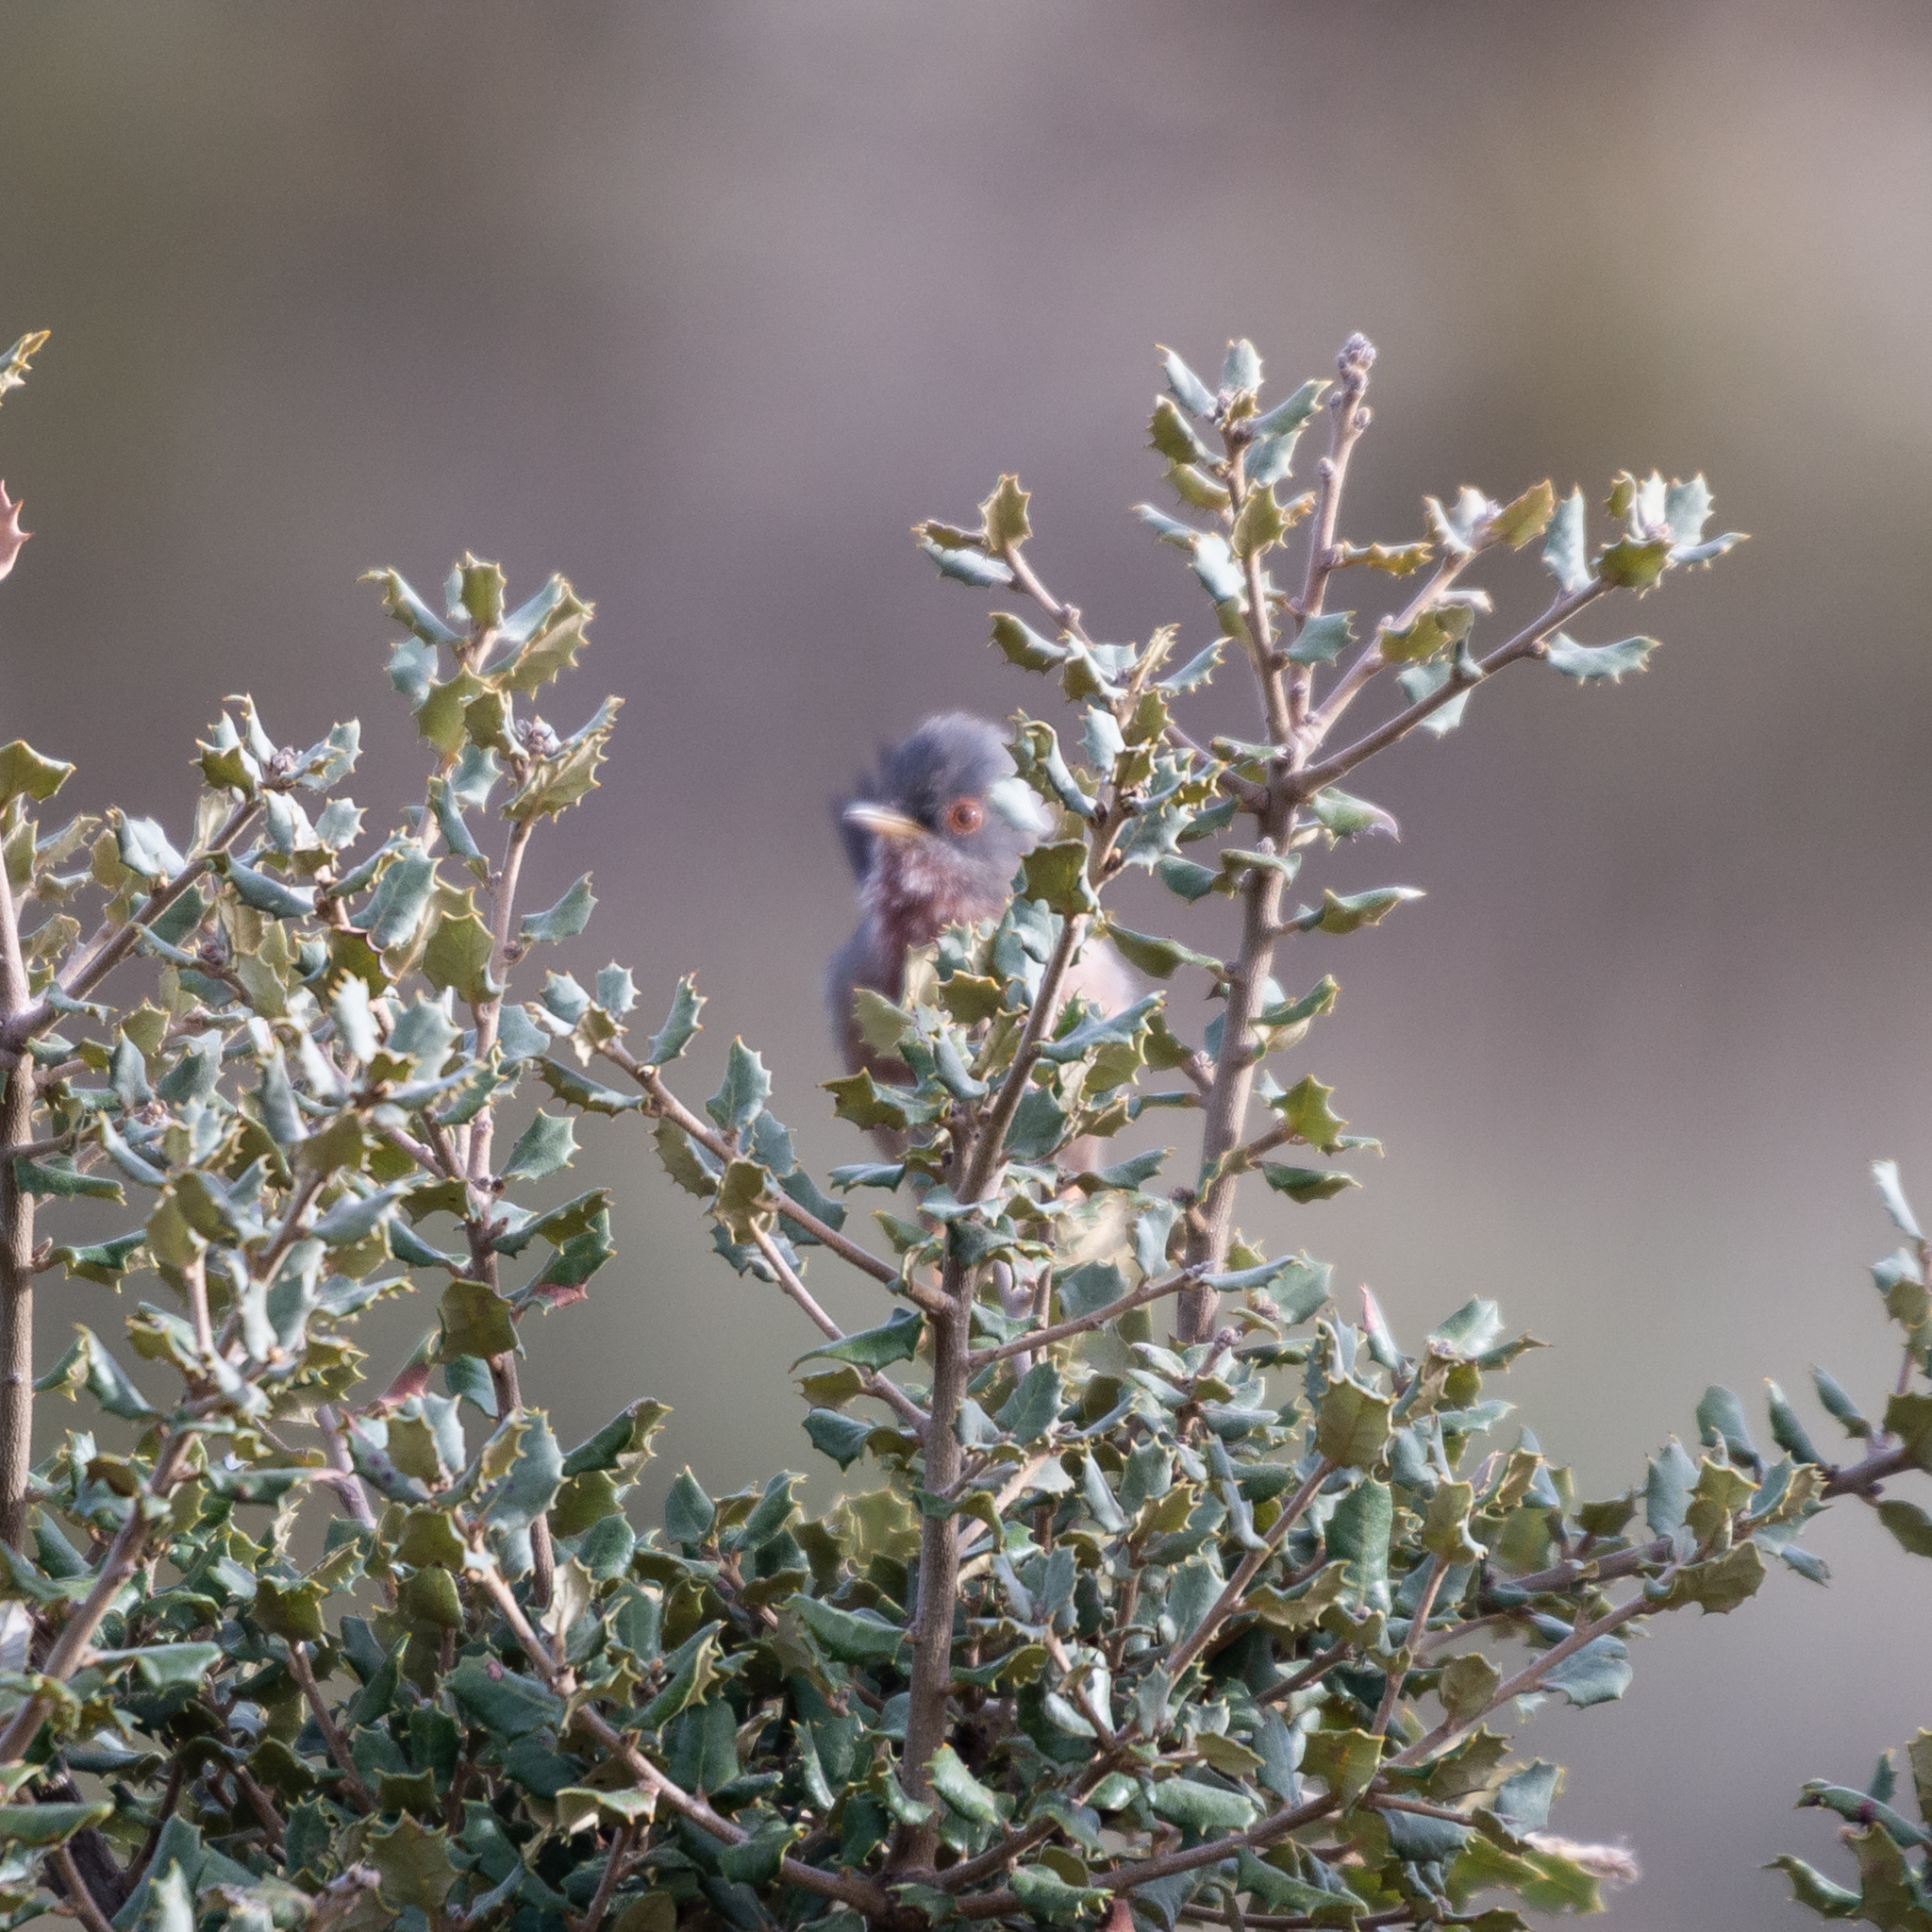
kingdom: Animalia
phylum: Chordata
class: Aves
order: Passeriformes
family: Sylviidae
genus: Sylvia
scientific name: Sylvia undata
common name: Dartford warbler
